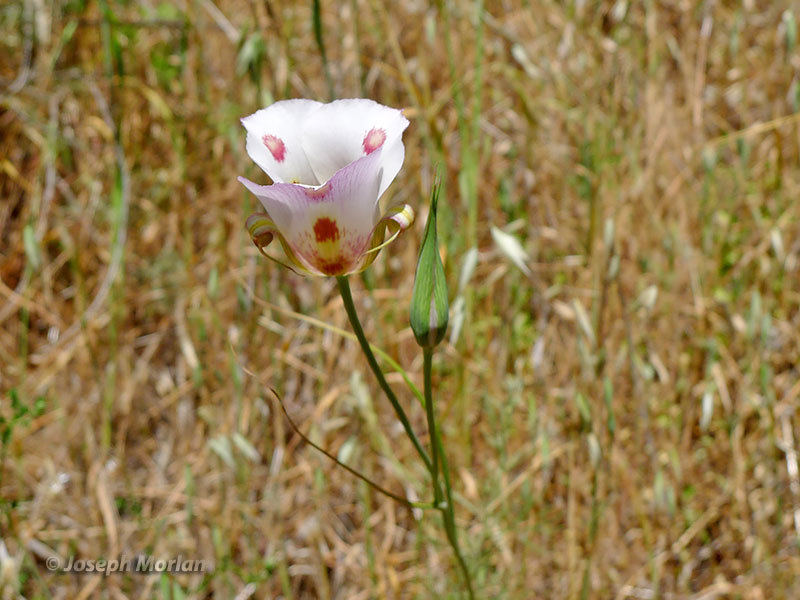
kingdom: Plantae
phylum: Tracheophyta
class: Liliopsida
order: Liliales
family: Liliaceae
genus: Calochortus
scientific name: Calochortus venustus
